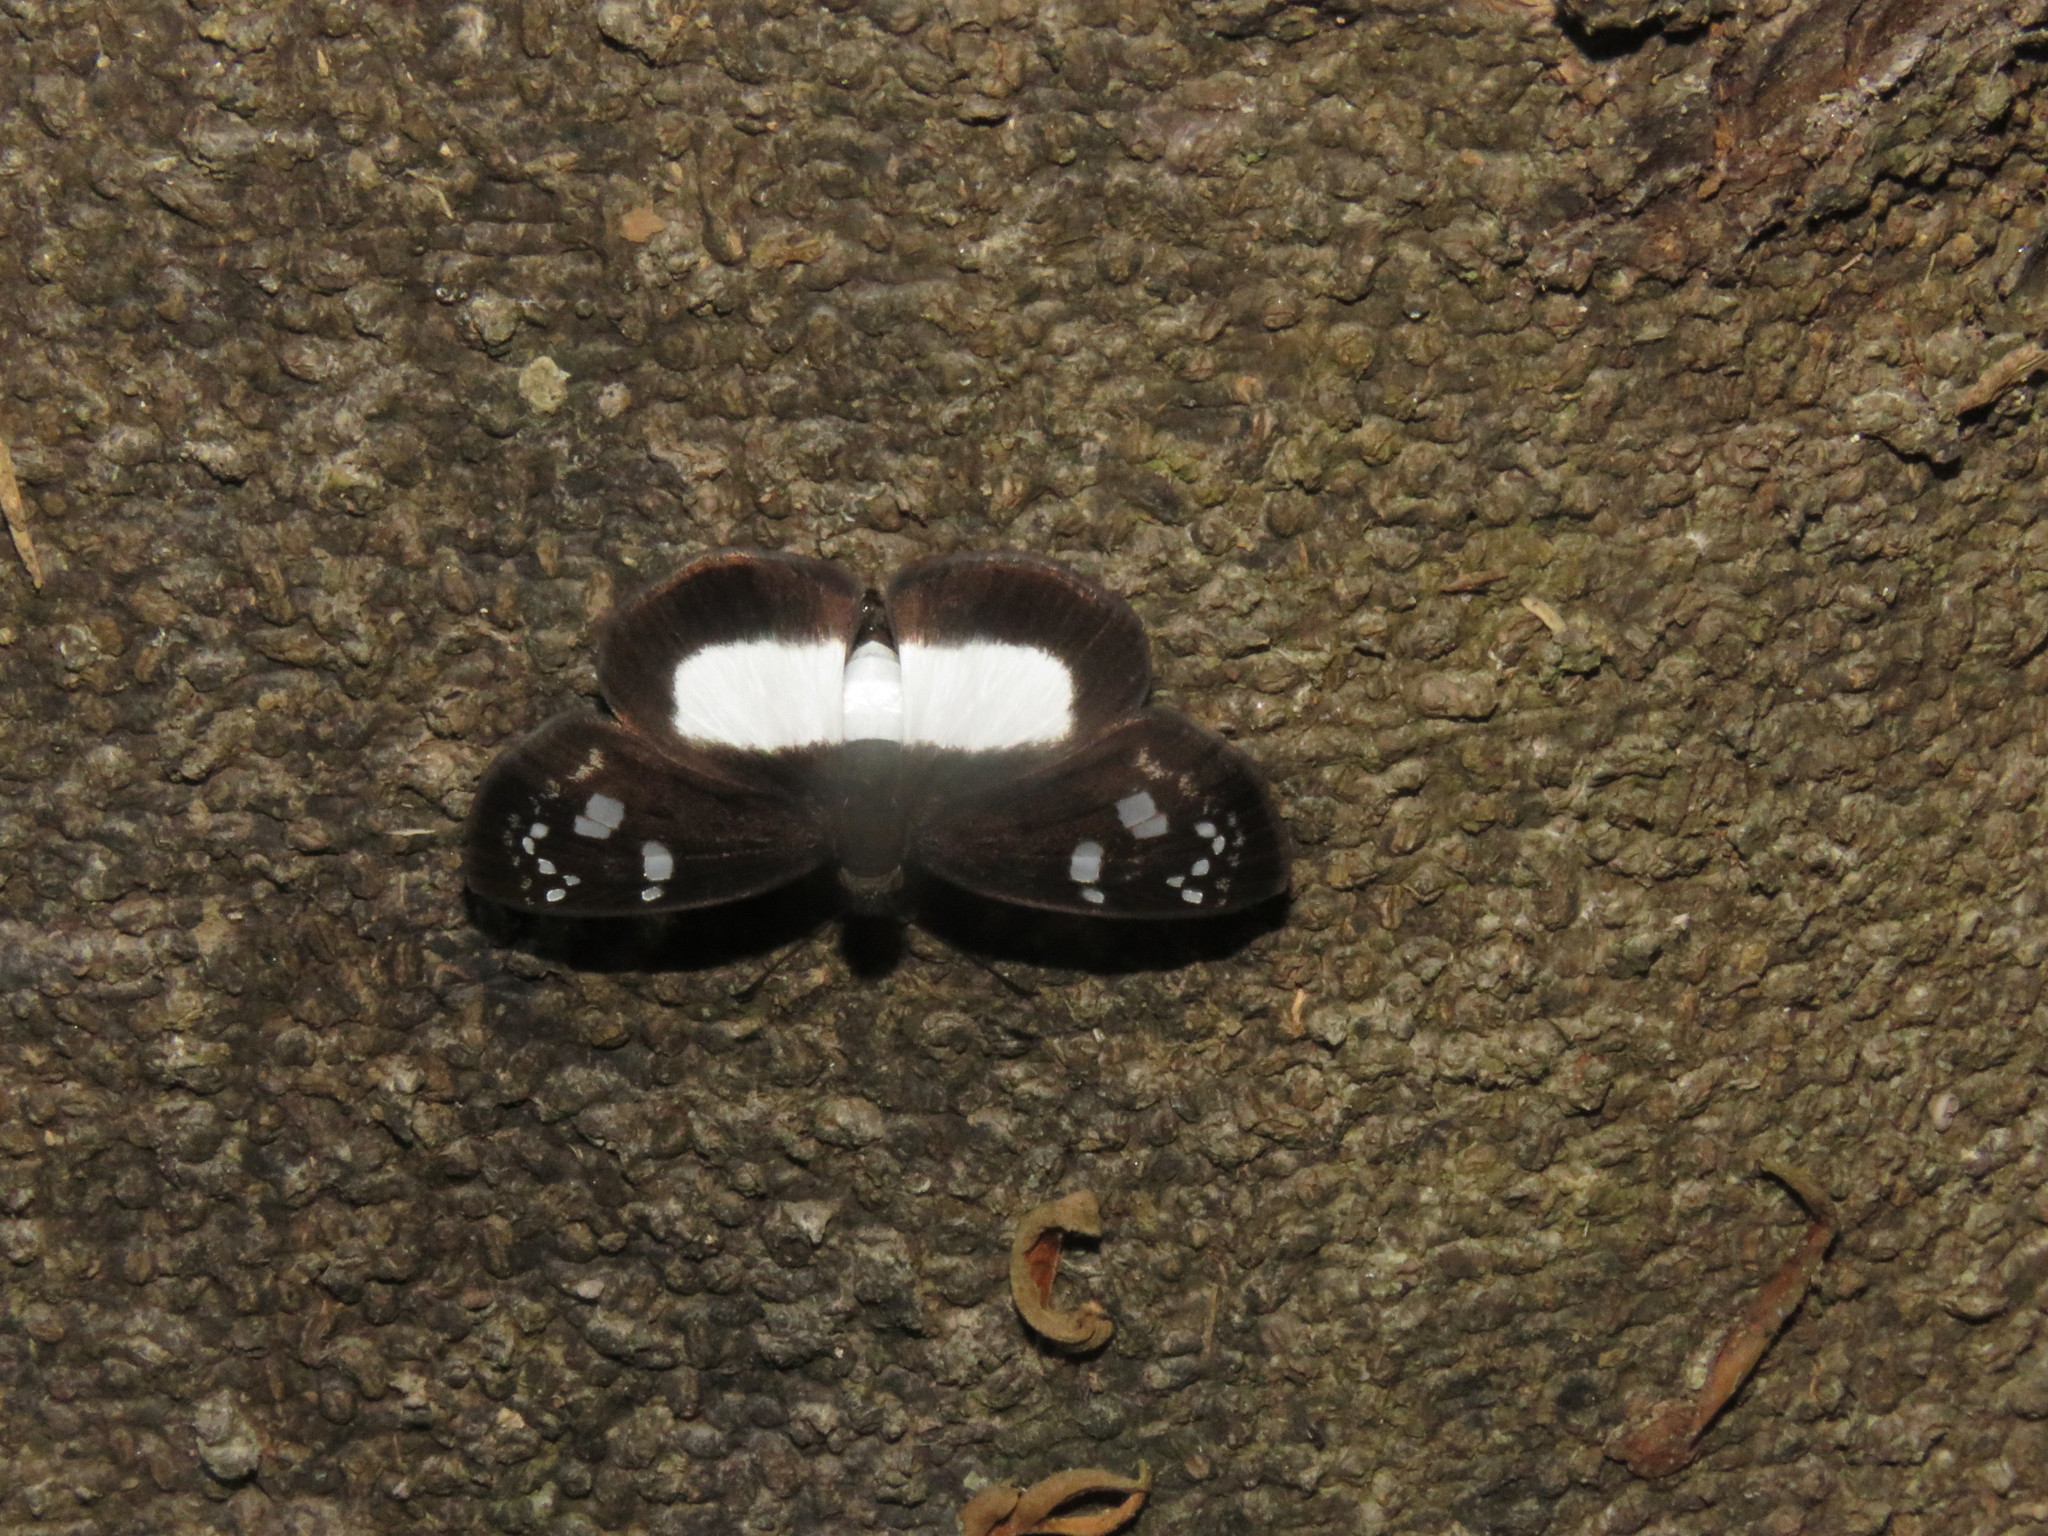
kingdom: Animalia
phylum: Arthropoda
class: Insecta
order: Lepidoptera
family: Hesperiidae
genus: Milanion
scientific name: Milanion pilumnus
